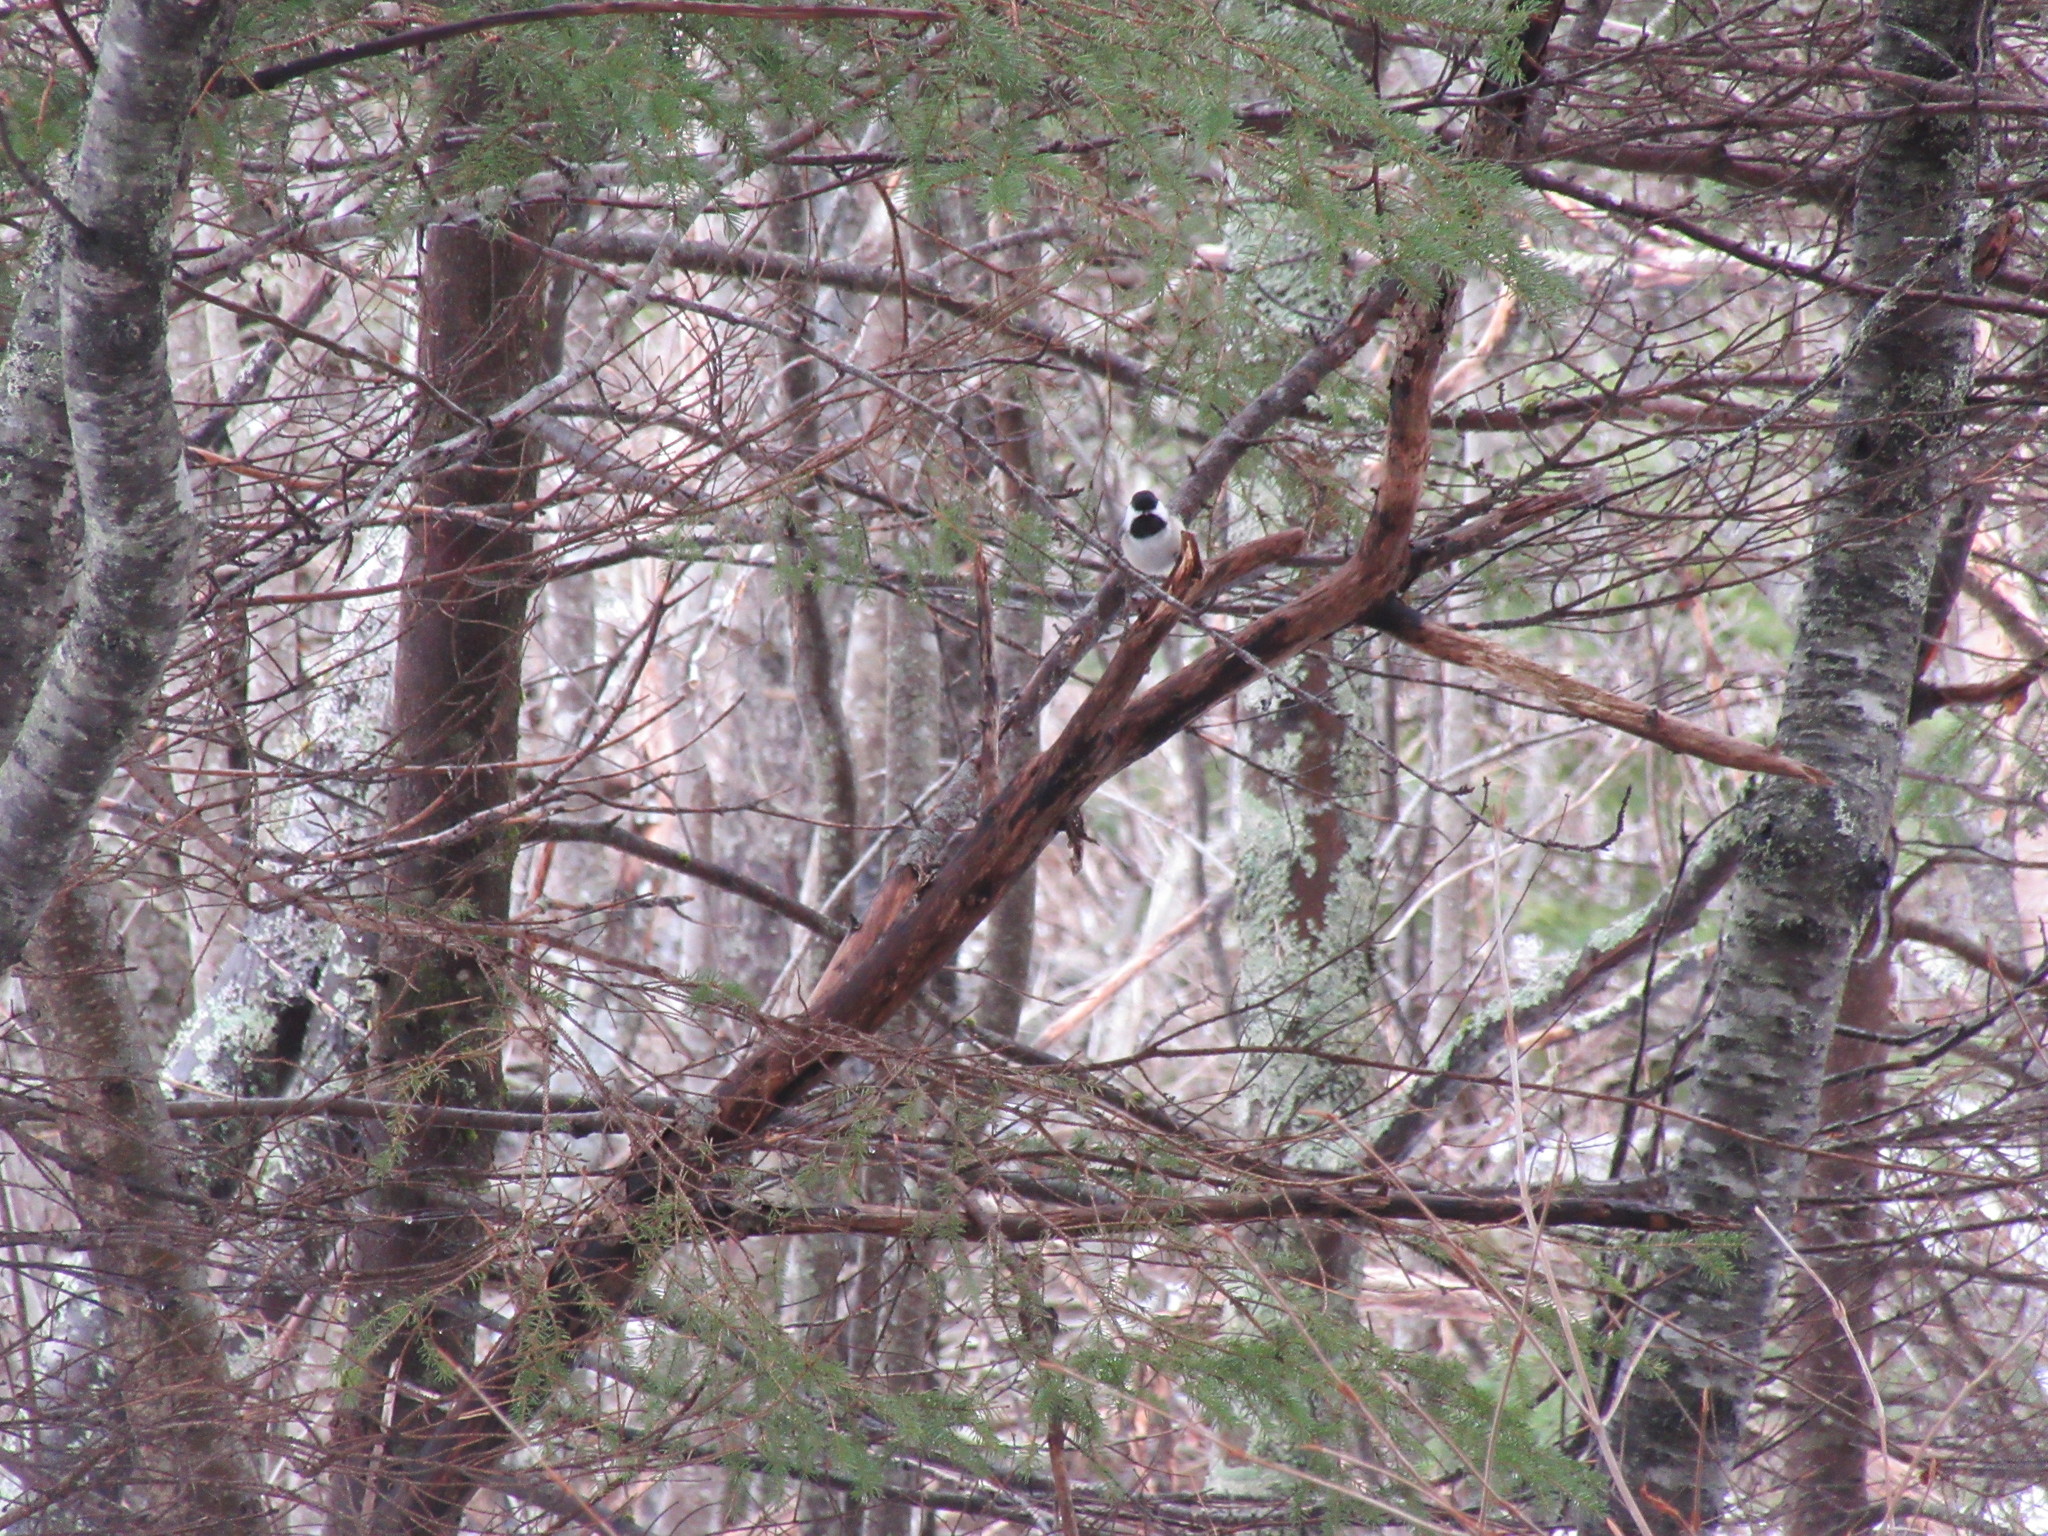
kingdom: Animalia
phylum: Chordata
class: Aves
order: Passeriformes
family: Paridae
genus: Poecile
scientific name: Poecile atricapillus
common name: Black-capped chickadee
